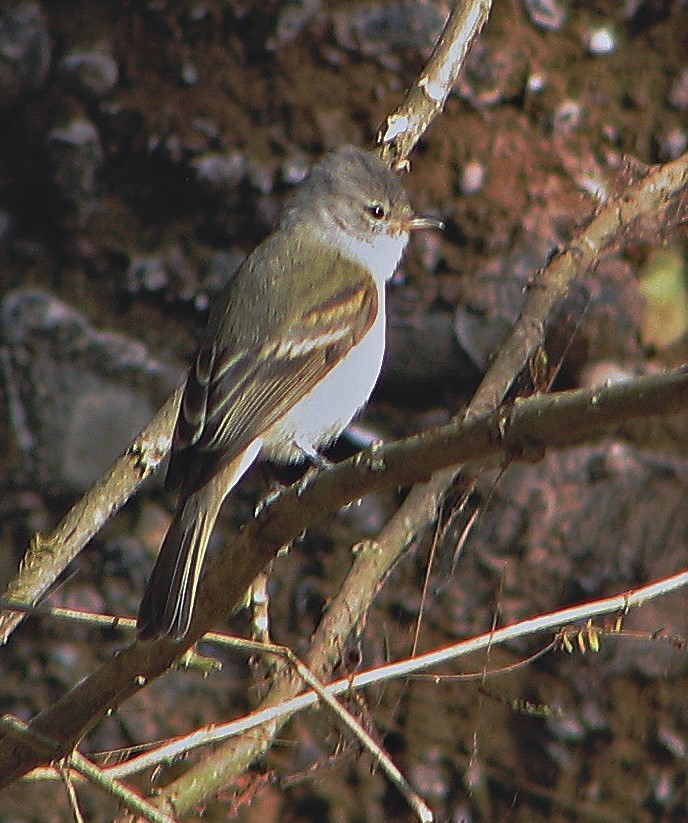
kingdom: Animalia
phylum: Chordata
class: Aves
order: Passeriformes
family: Tyrannidae
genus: Camptostoma
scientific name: Camptostoma obsoletum
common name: Southern beardless-tyrannulet
